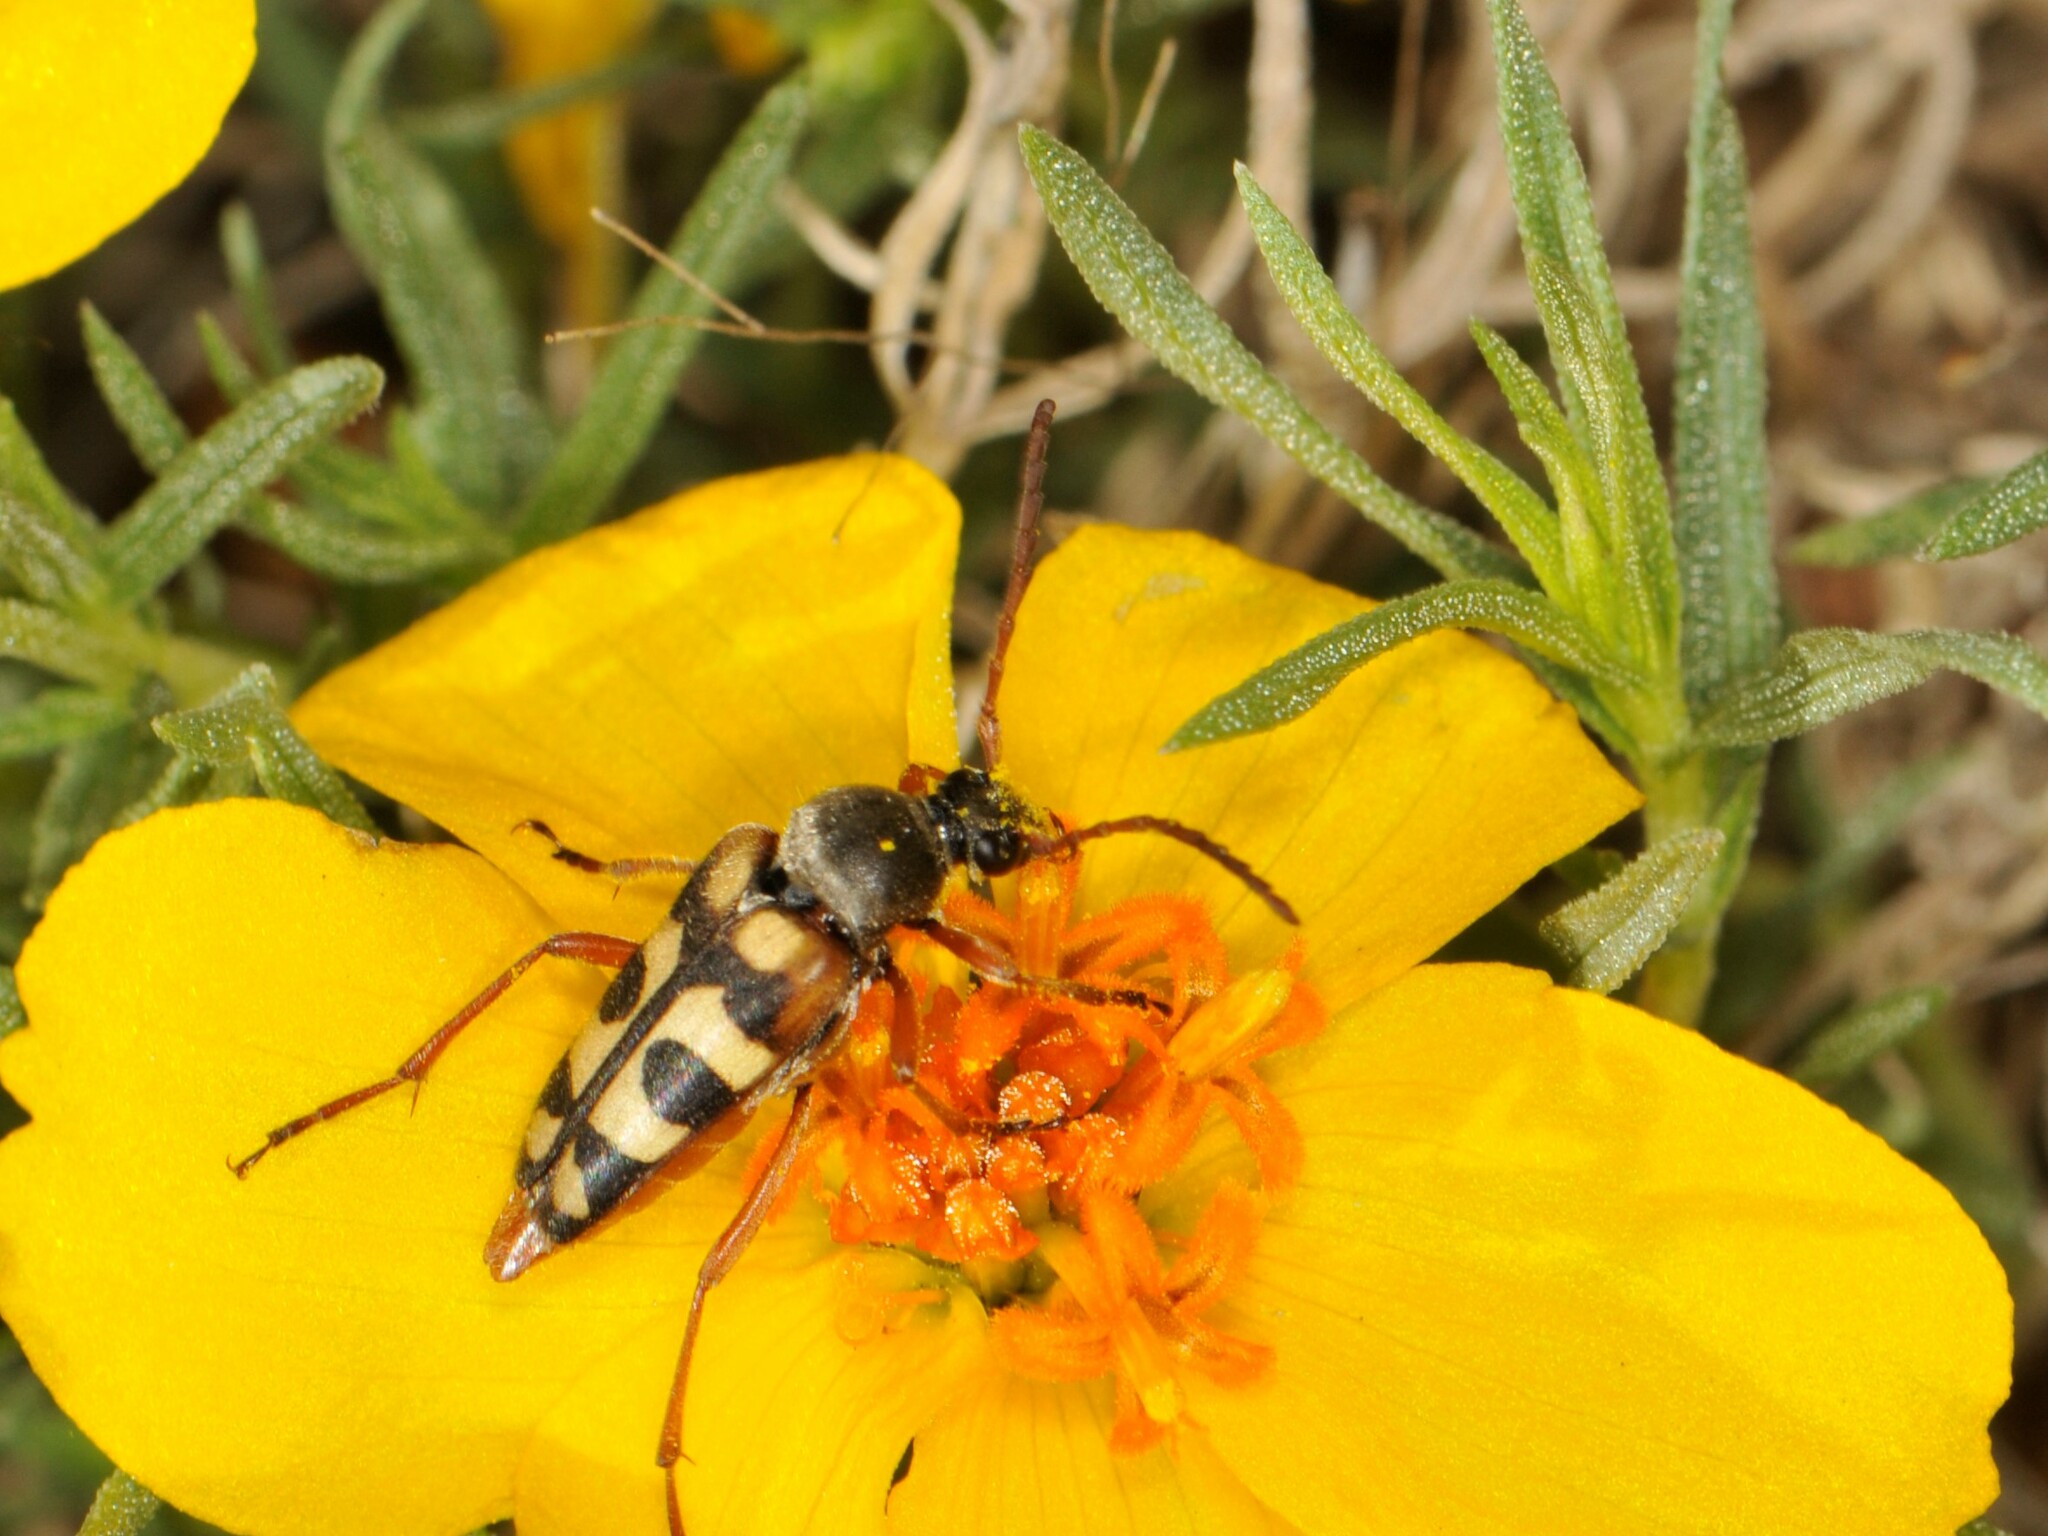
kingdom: Animalia
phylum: Arthropoda
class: Insecta
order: Coleoptera
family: Cerambycidae
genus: Typocerus
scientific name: Typocerus sinuatus
